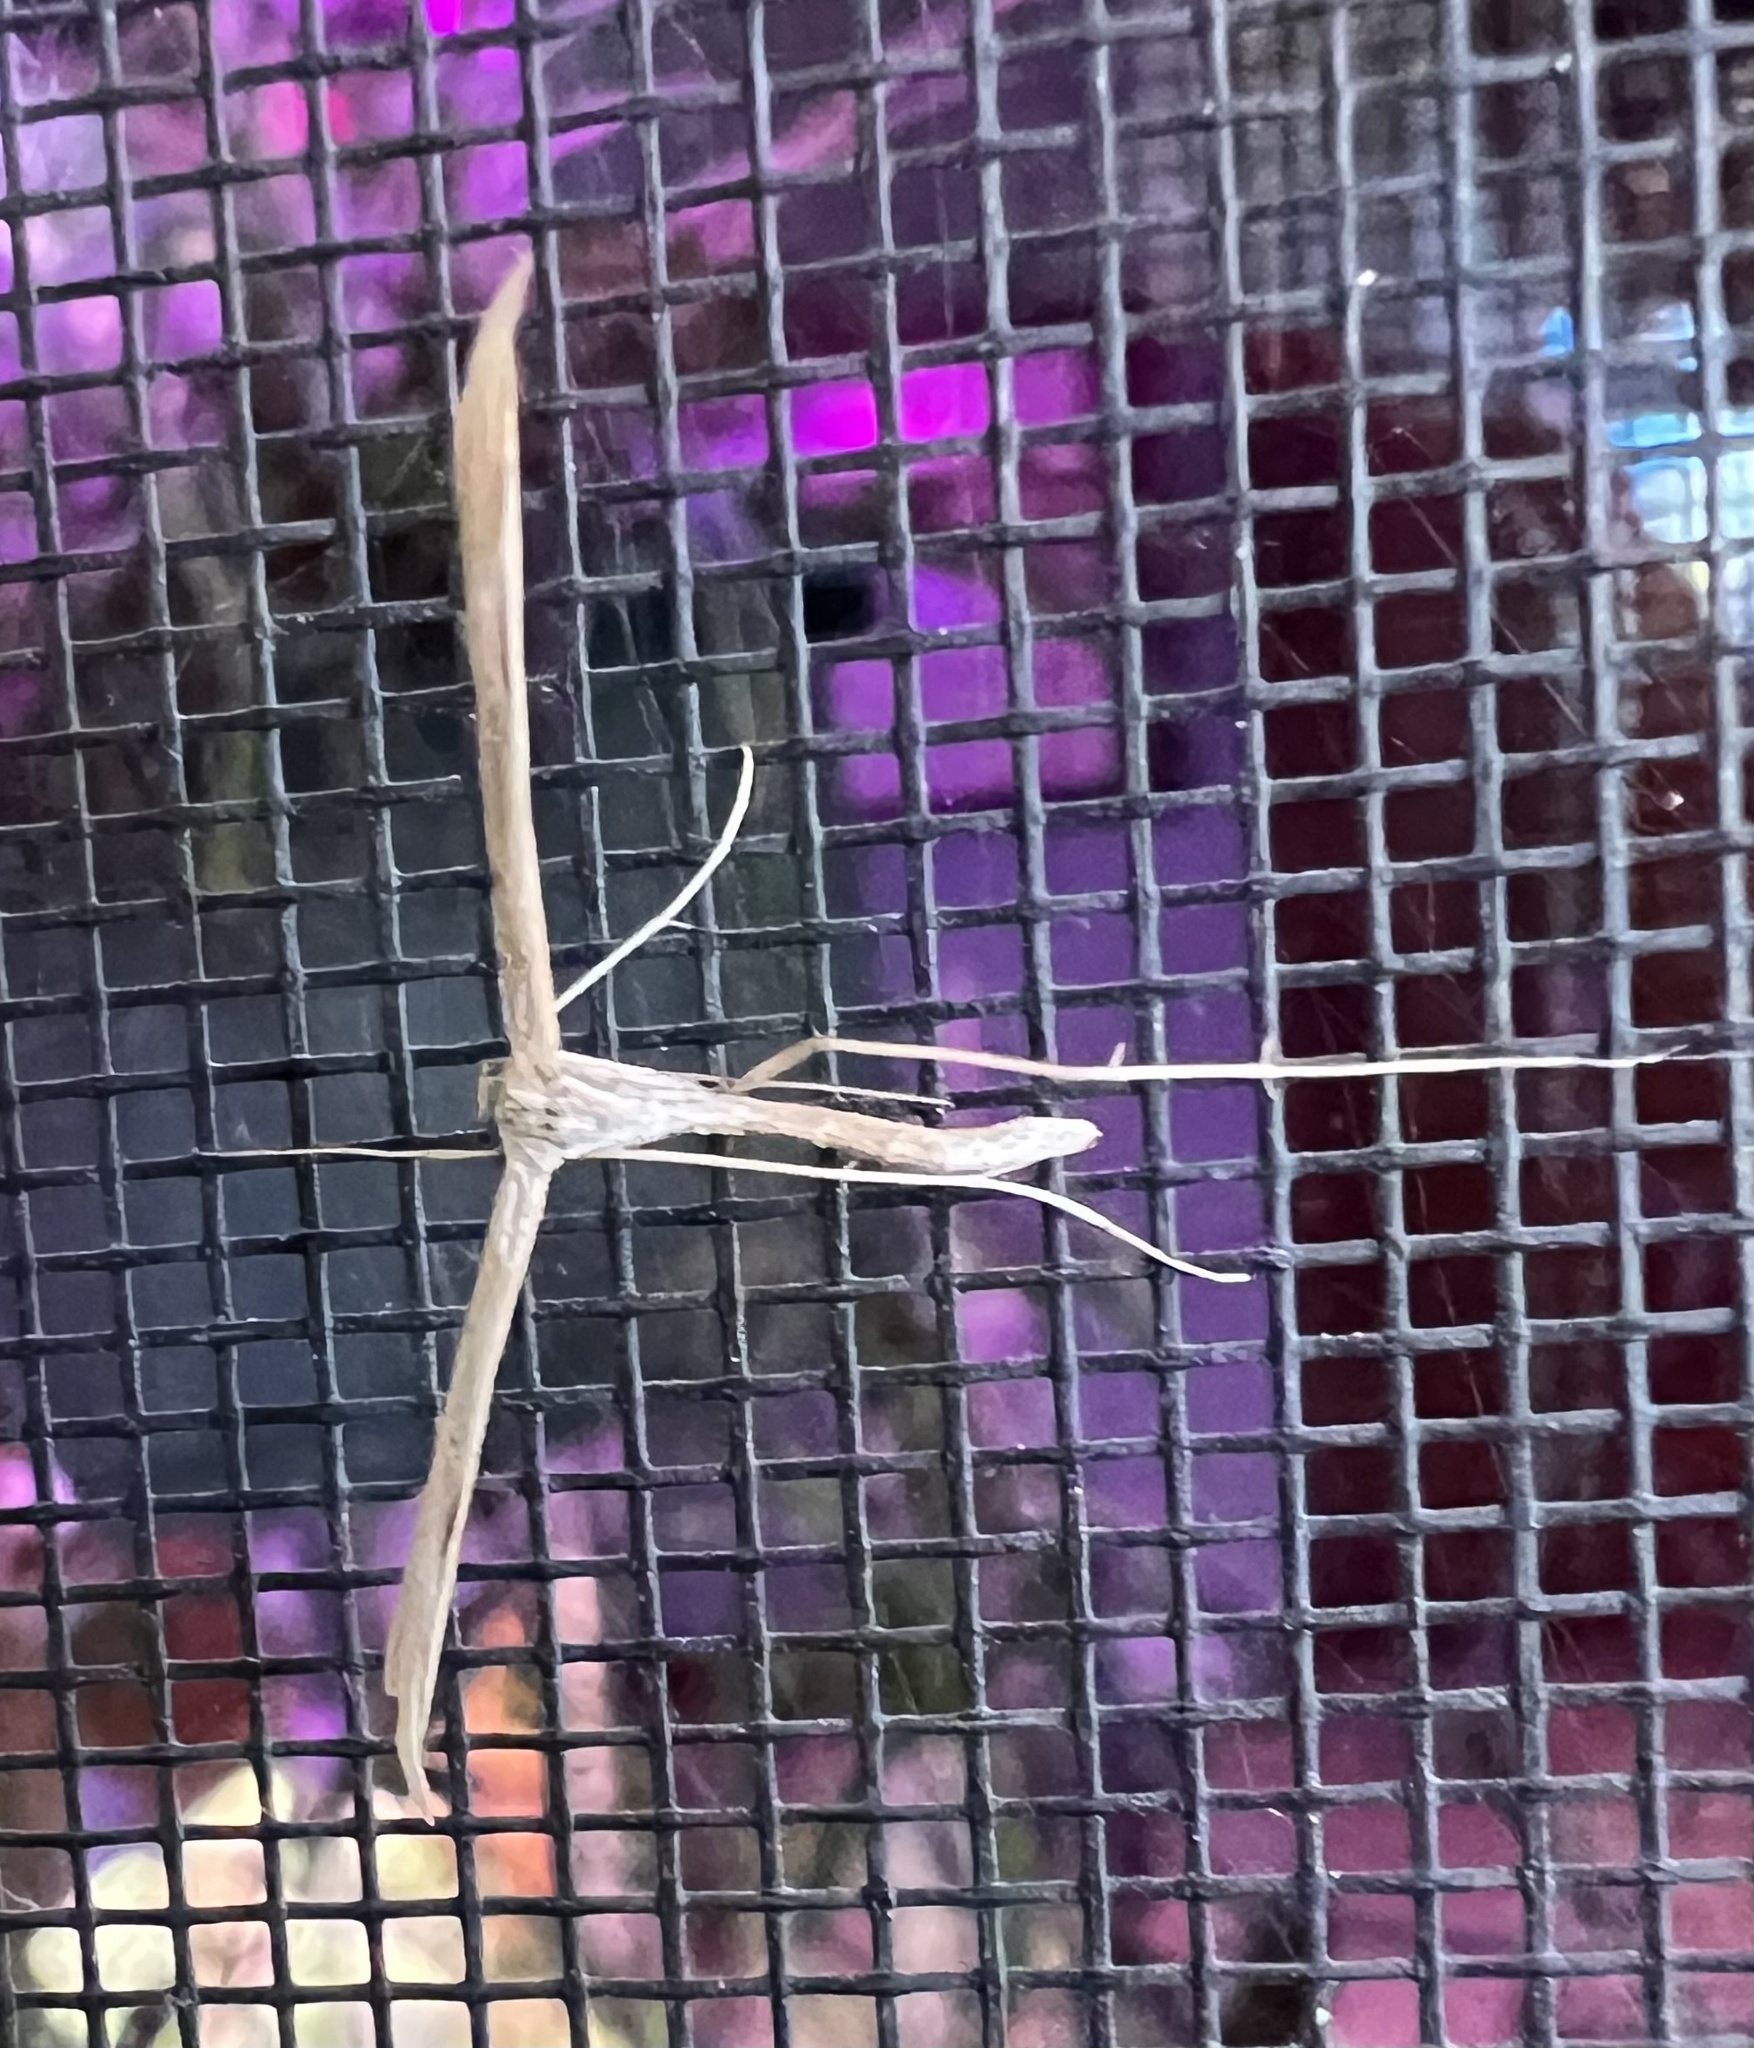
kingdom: Animalia
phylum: Arthropoda
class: Insecta
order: Lepidoptera
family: Pterophoridae
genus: Emmelina
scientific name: Emmelina monodactyla
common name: Common plume
